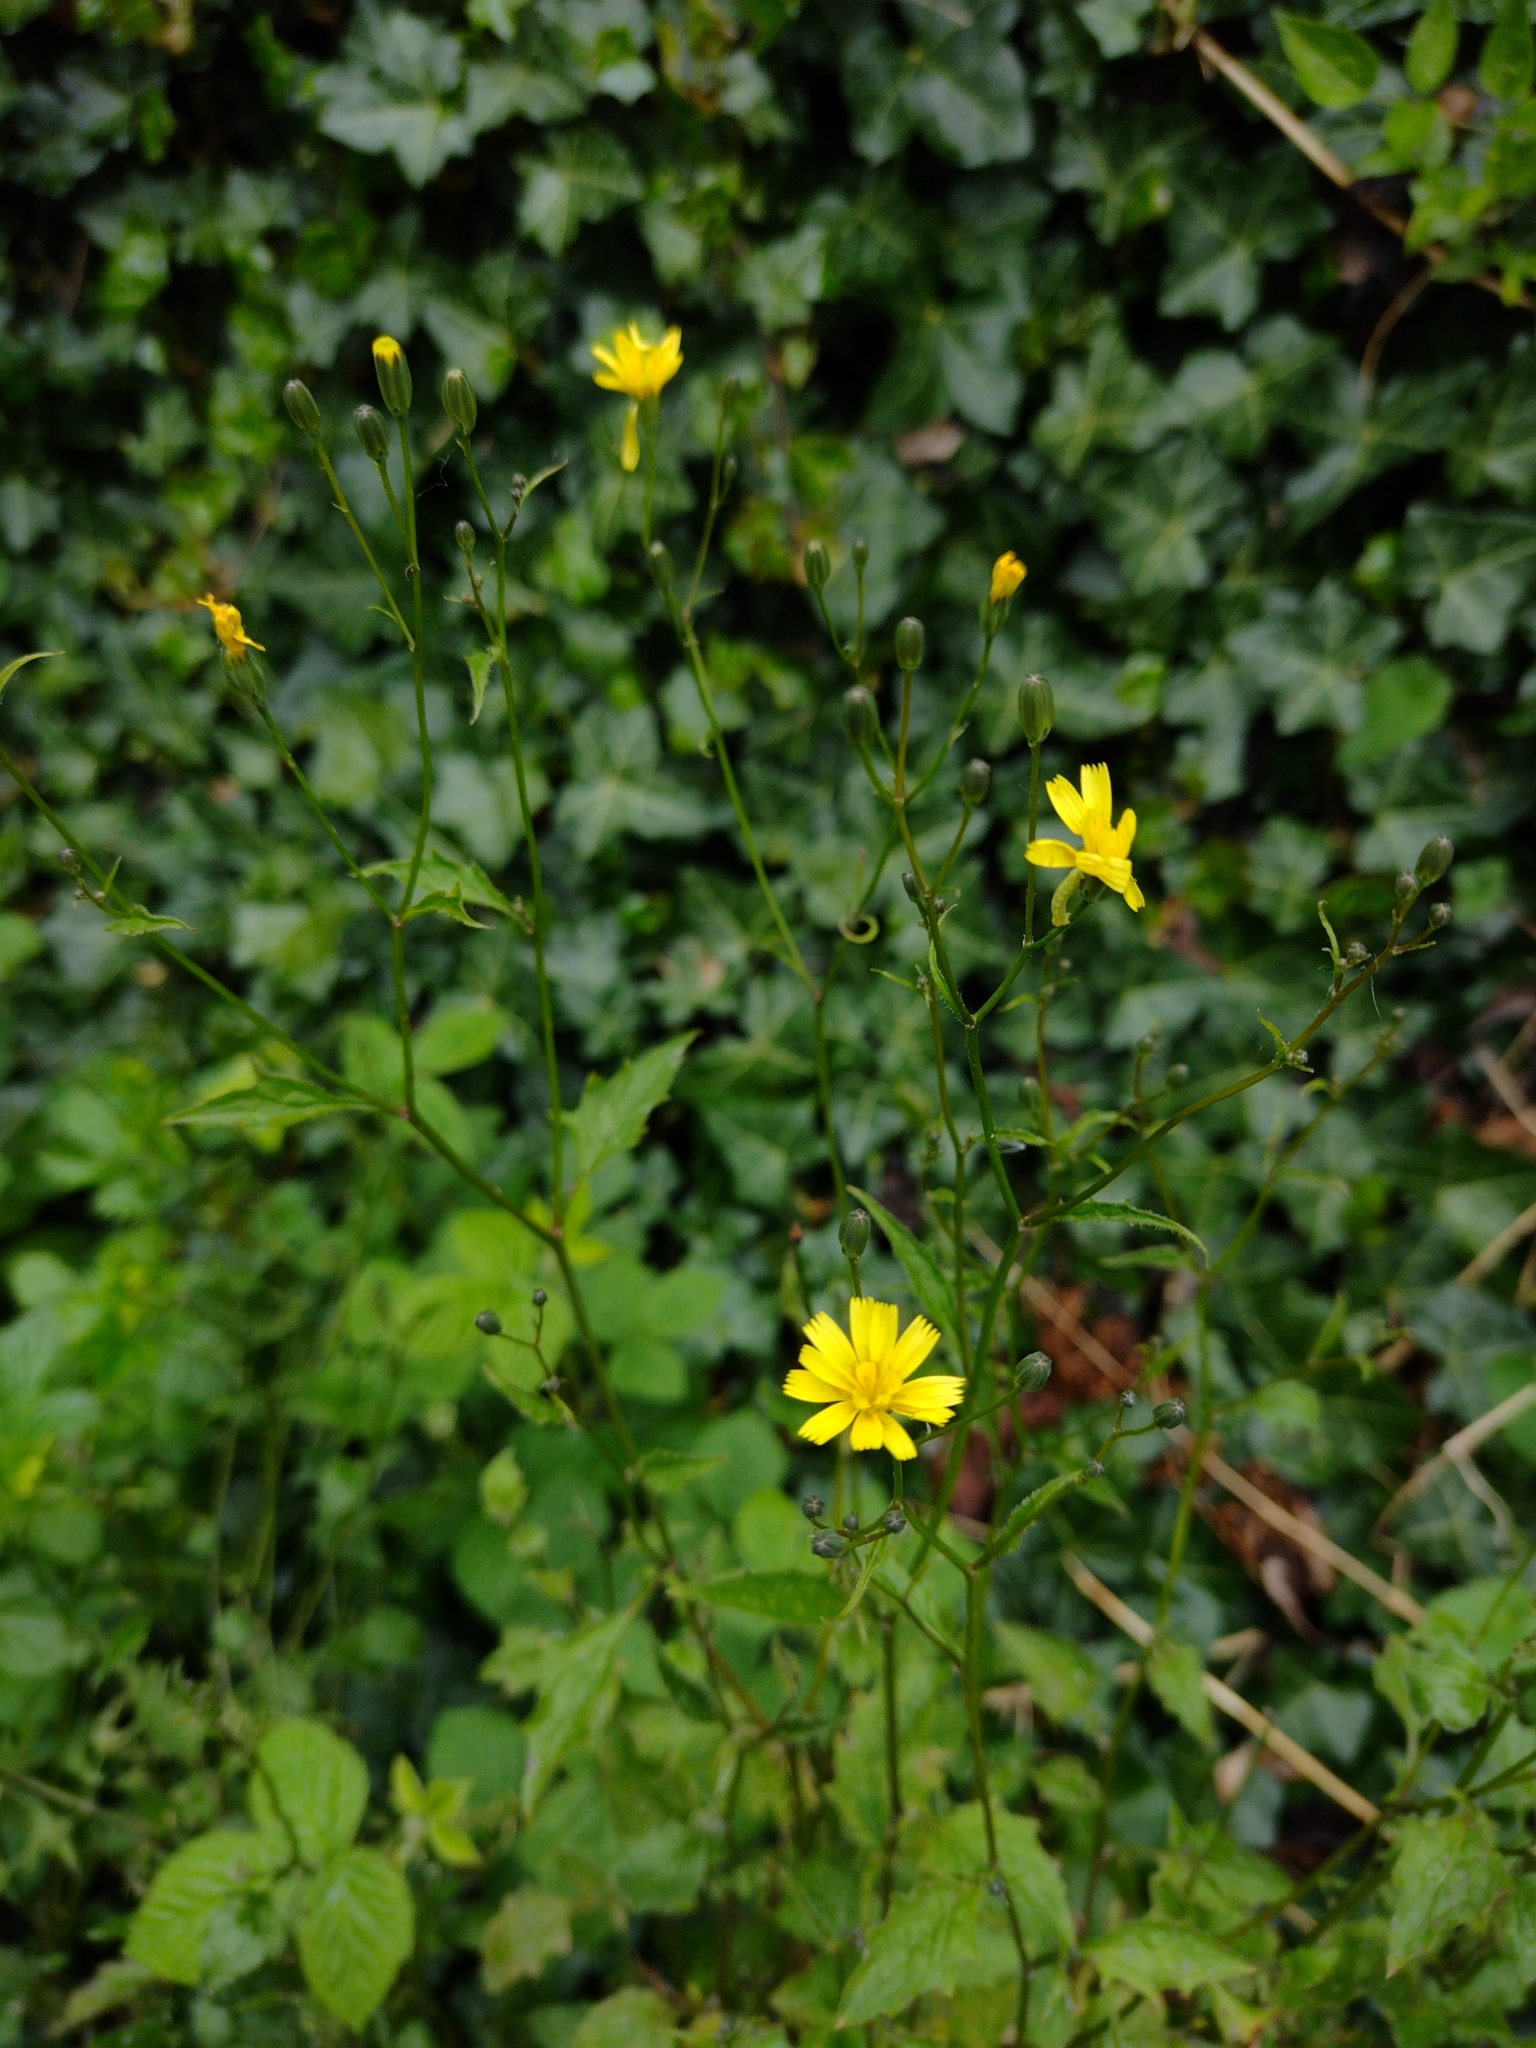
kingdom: Plantae
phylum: Tracheophyta
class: Magnoliopsida
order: Asterales
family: Asteraceae
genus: Lapsana
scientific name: Lapsana communis
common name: Nipplewort
